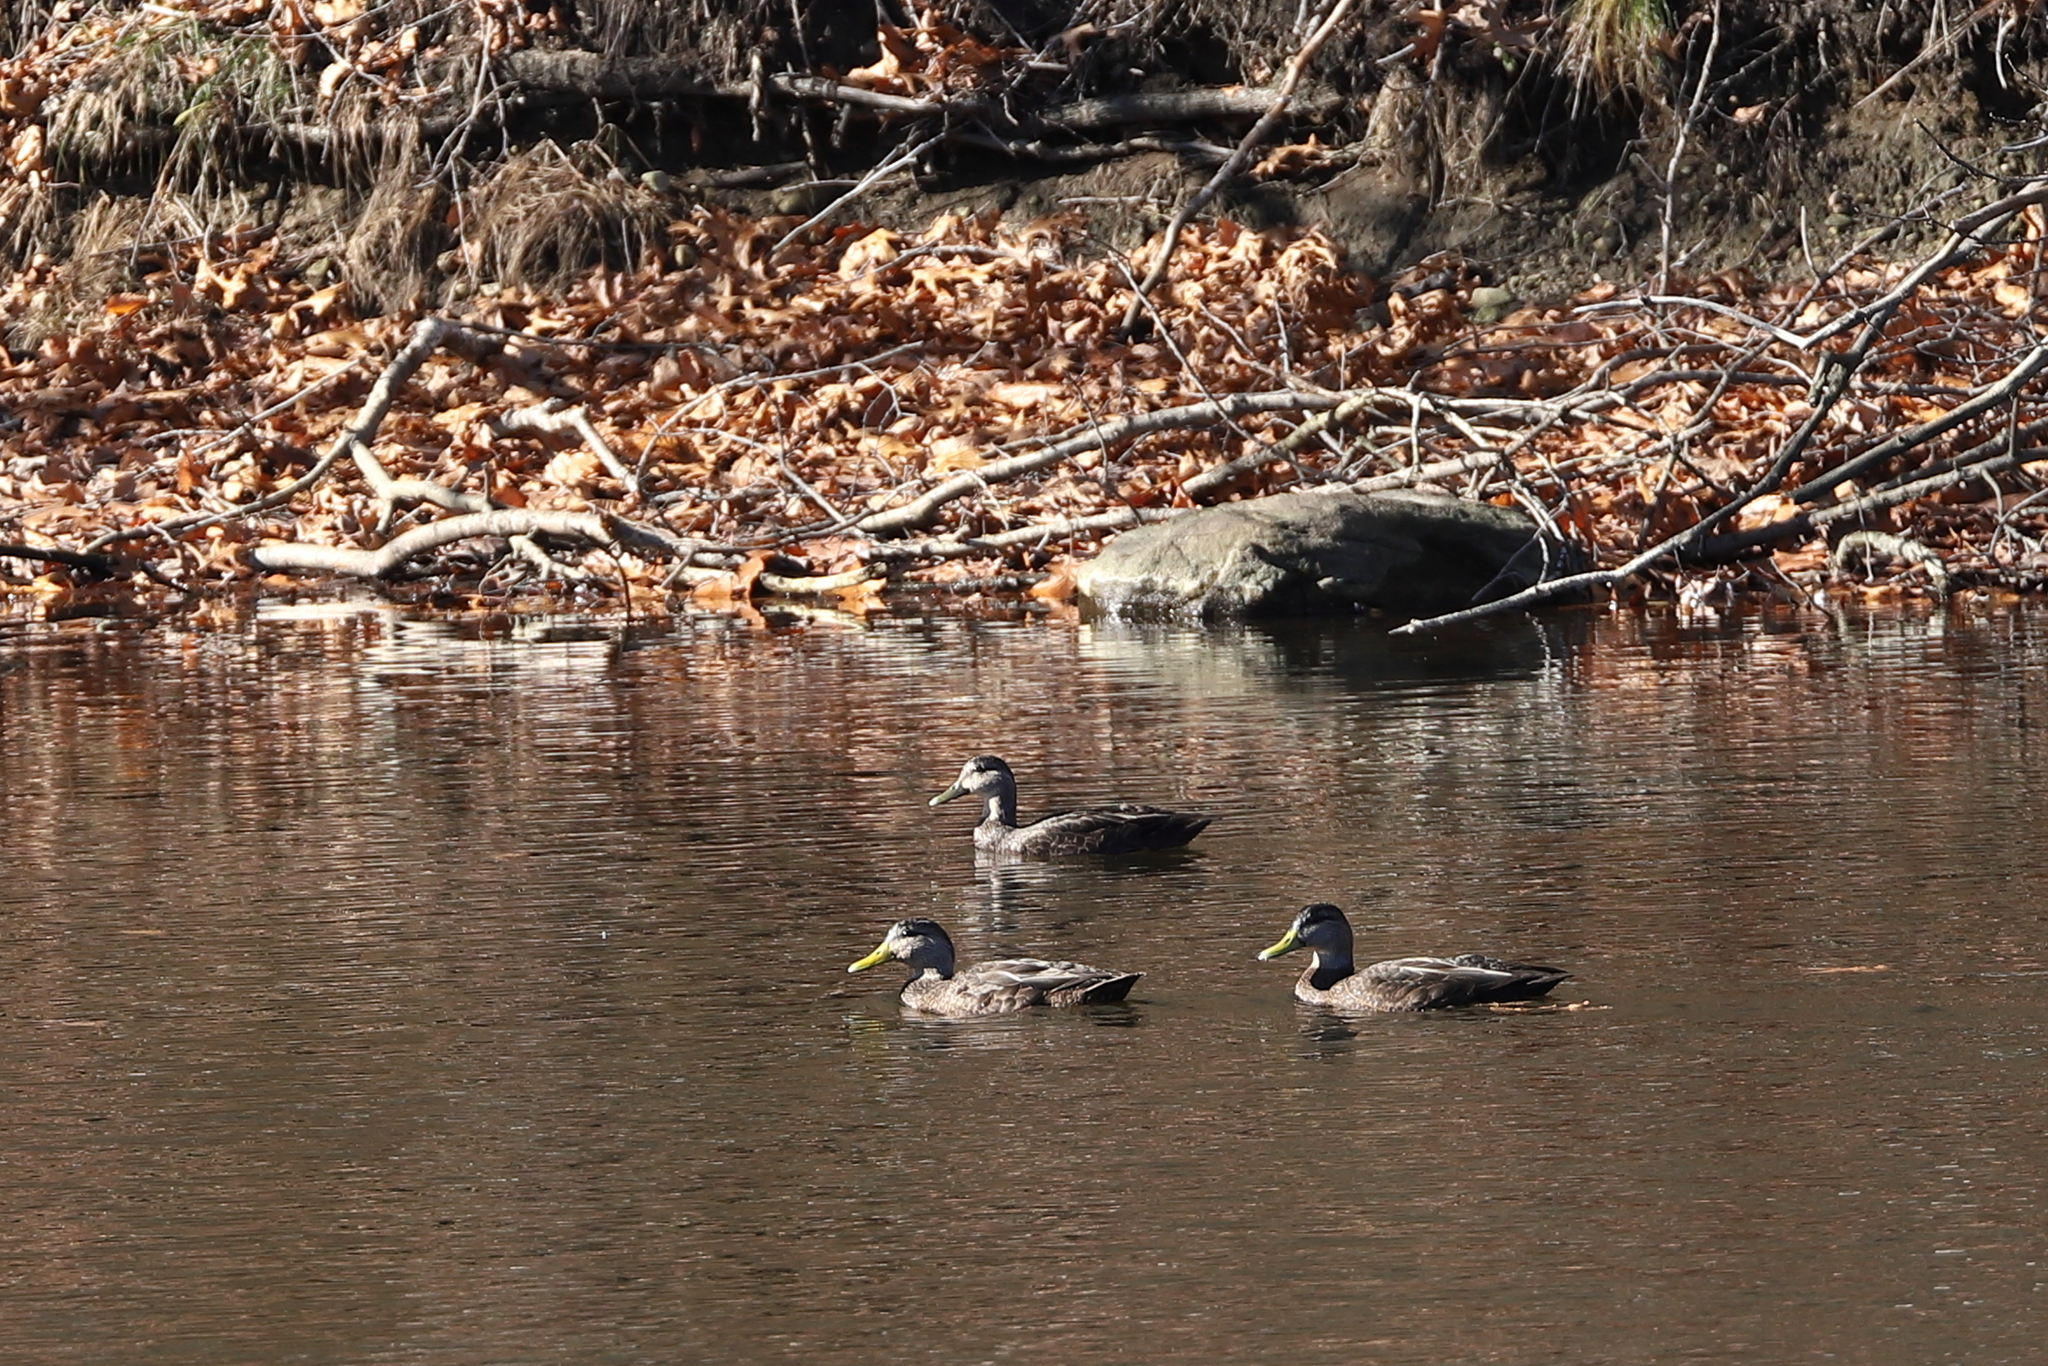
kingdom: Animalia
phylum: Chordata
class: Aves
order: Anseriformes
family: Anatidae
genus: Anas
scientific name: Anas rubripes
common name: American black duck
